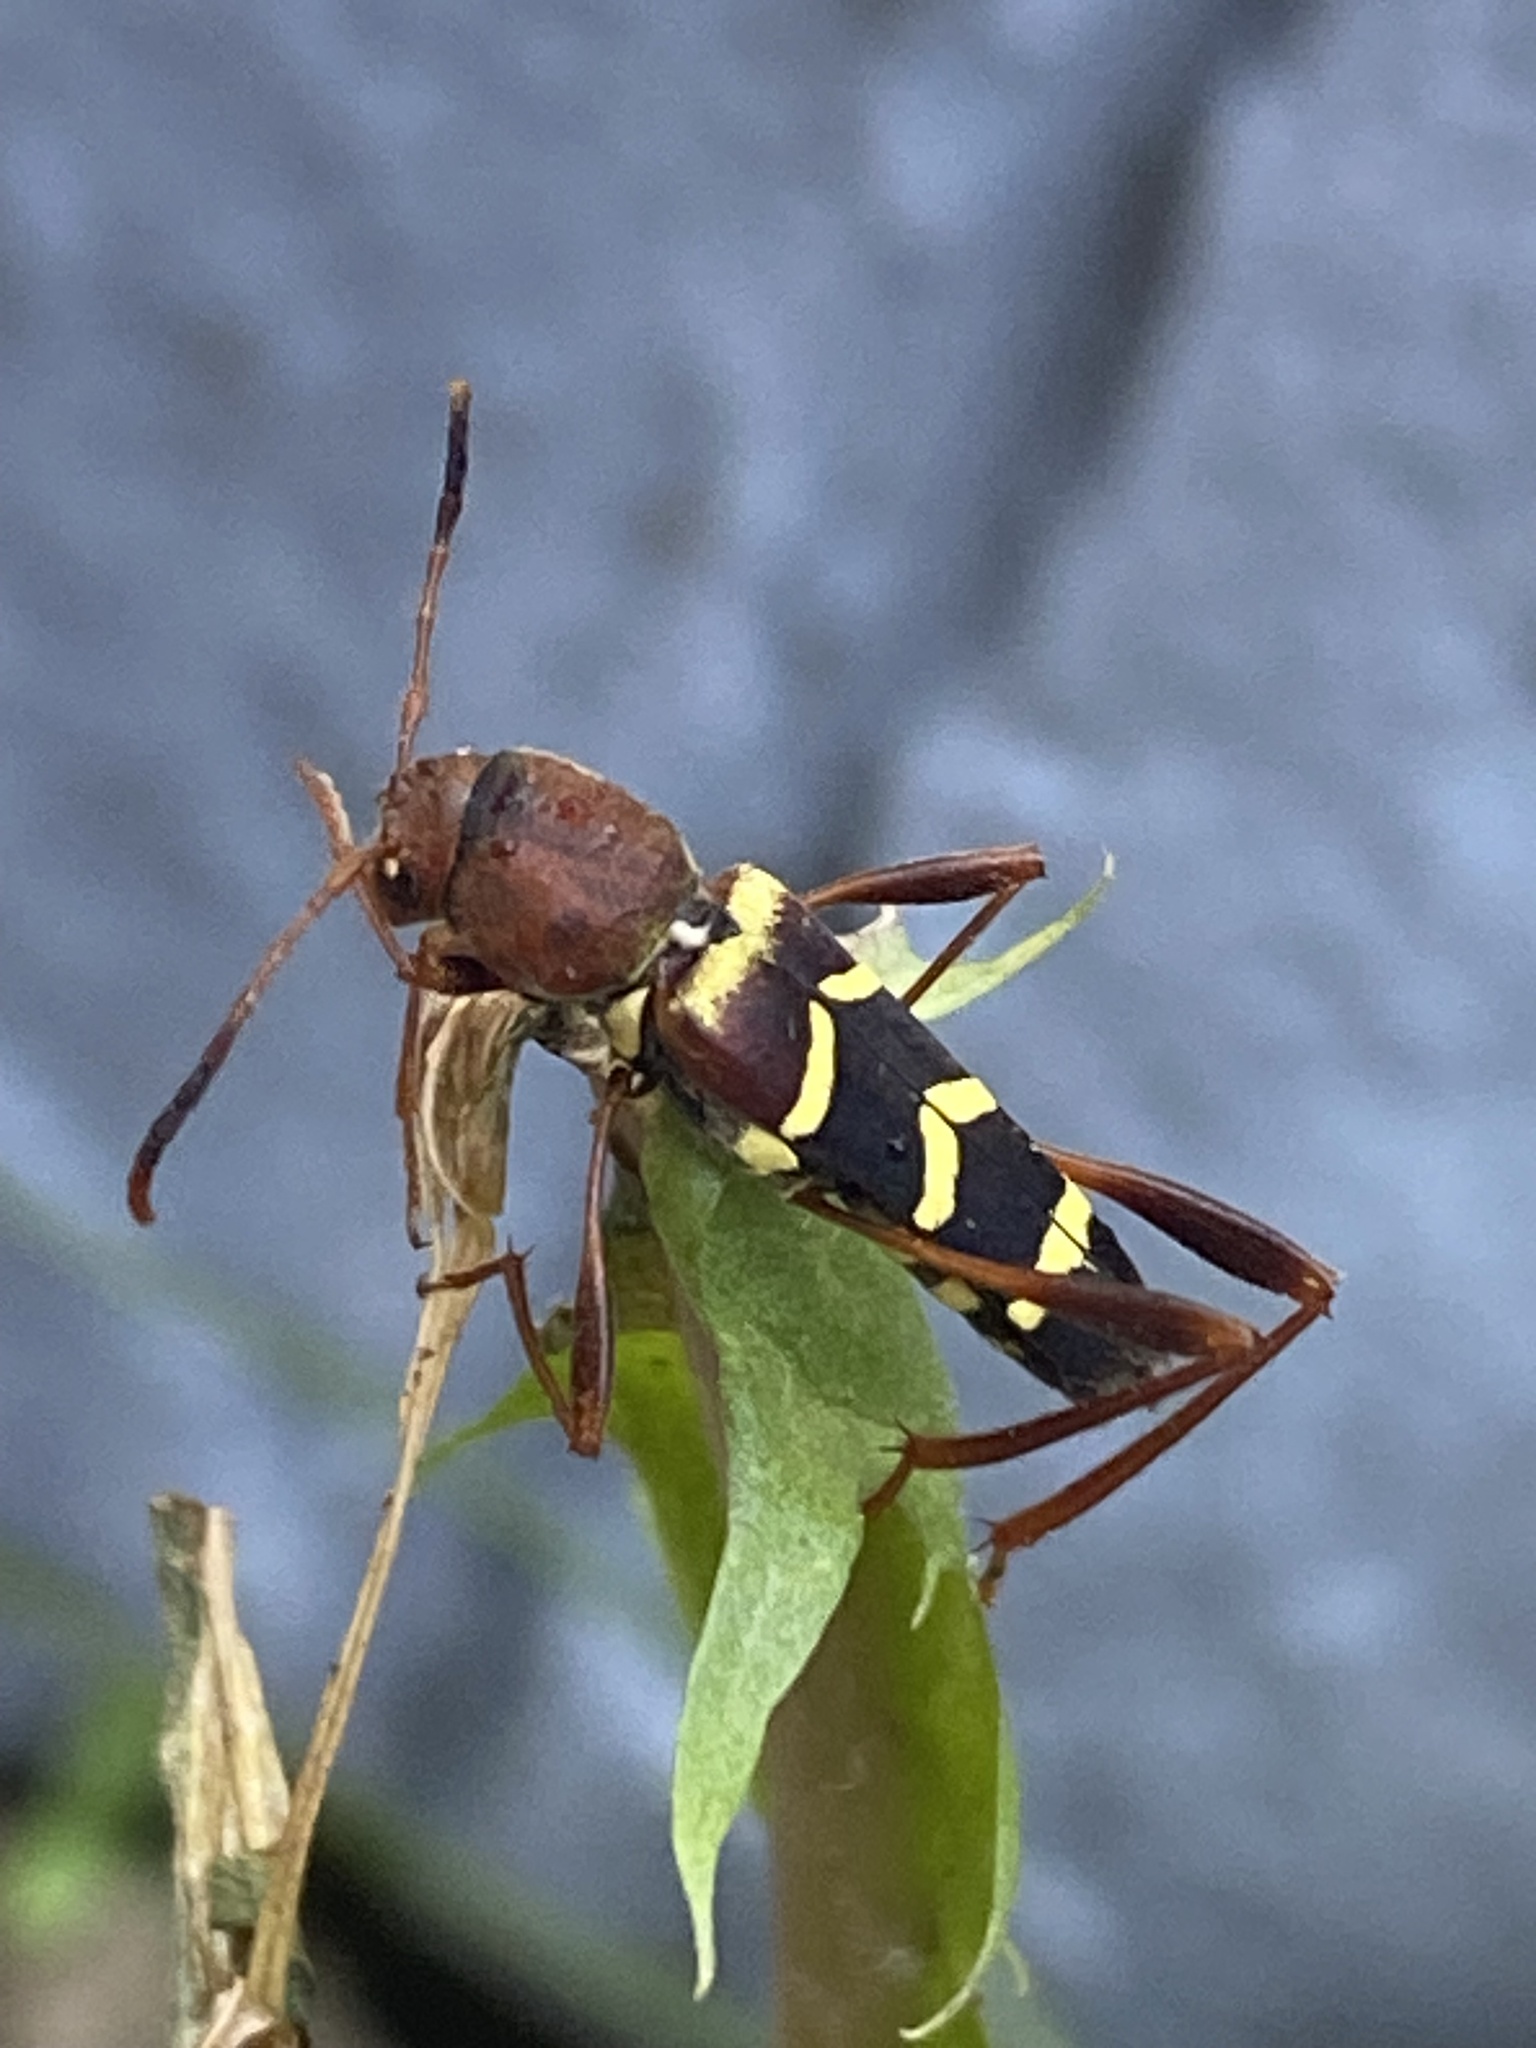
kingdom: Animalia
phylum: Arthropoda
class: Insecta
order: Coleoptera
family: Cerambycidae
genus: Neoclytus
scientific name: Neoclytus acuminatus
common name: Read-headed ash borer
